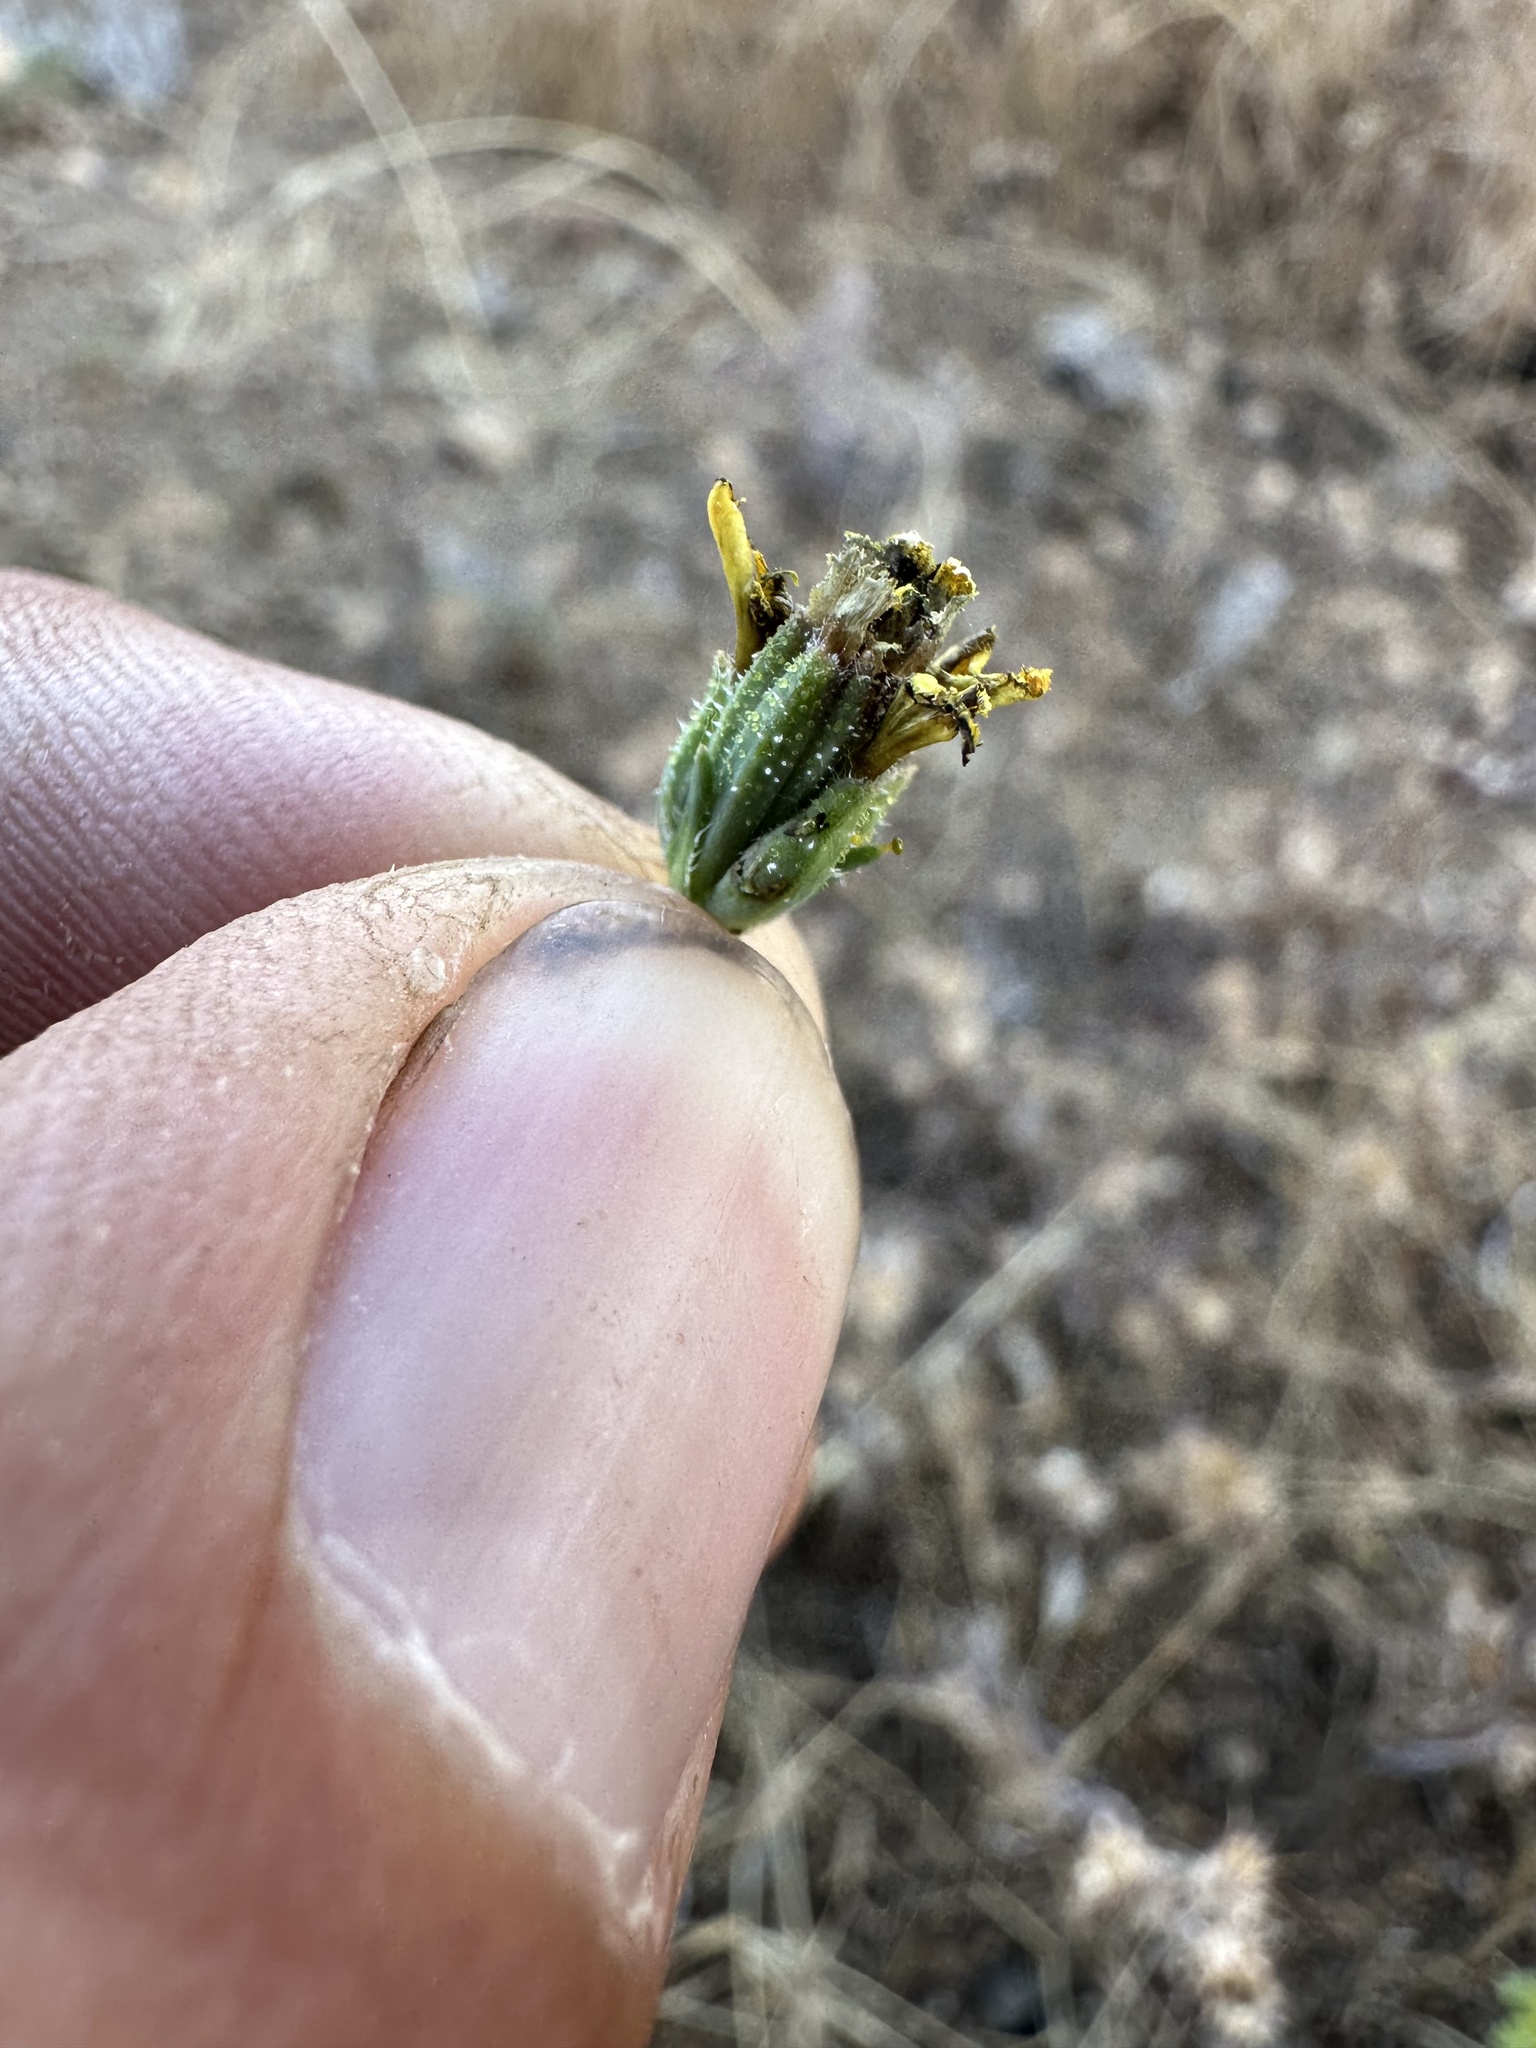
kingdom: Plantae
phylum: Tracheophyta
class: Magnoliopsida
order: Asterales
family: Asteraceae
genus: Calycadenia
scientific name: Calycadenia truncata
